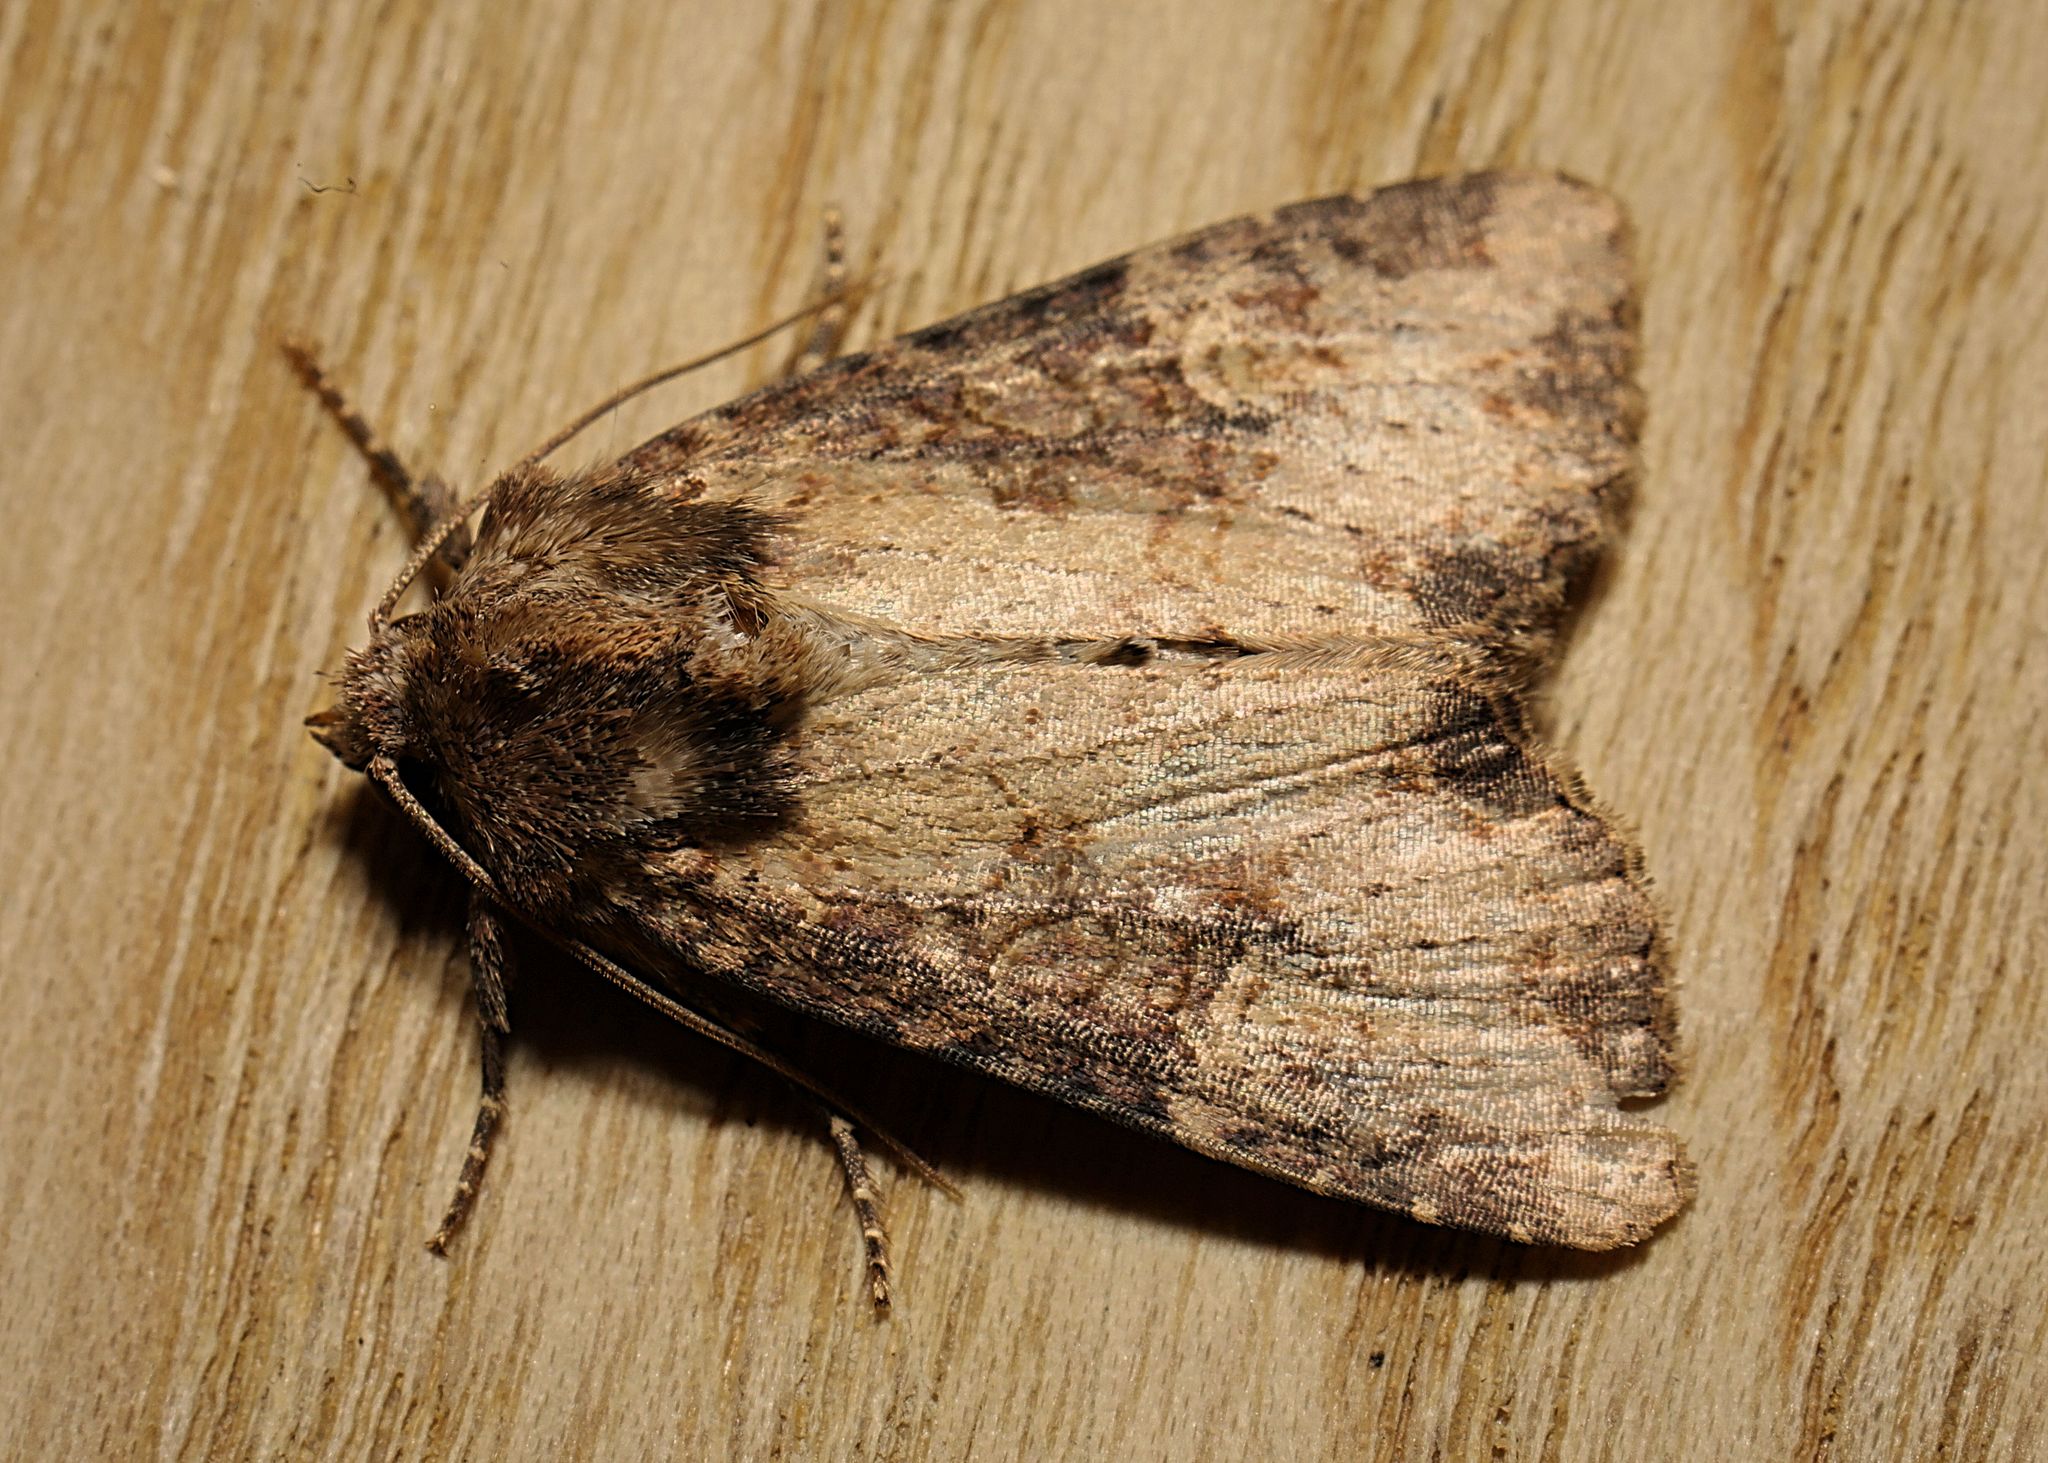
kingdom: Animalia
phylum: Arthropoda
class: Insecta
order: Lepidoptera
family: Noctuidae
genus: Mesapamea
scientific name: Mesapamea secalis
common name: Common rustic
